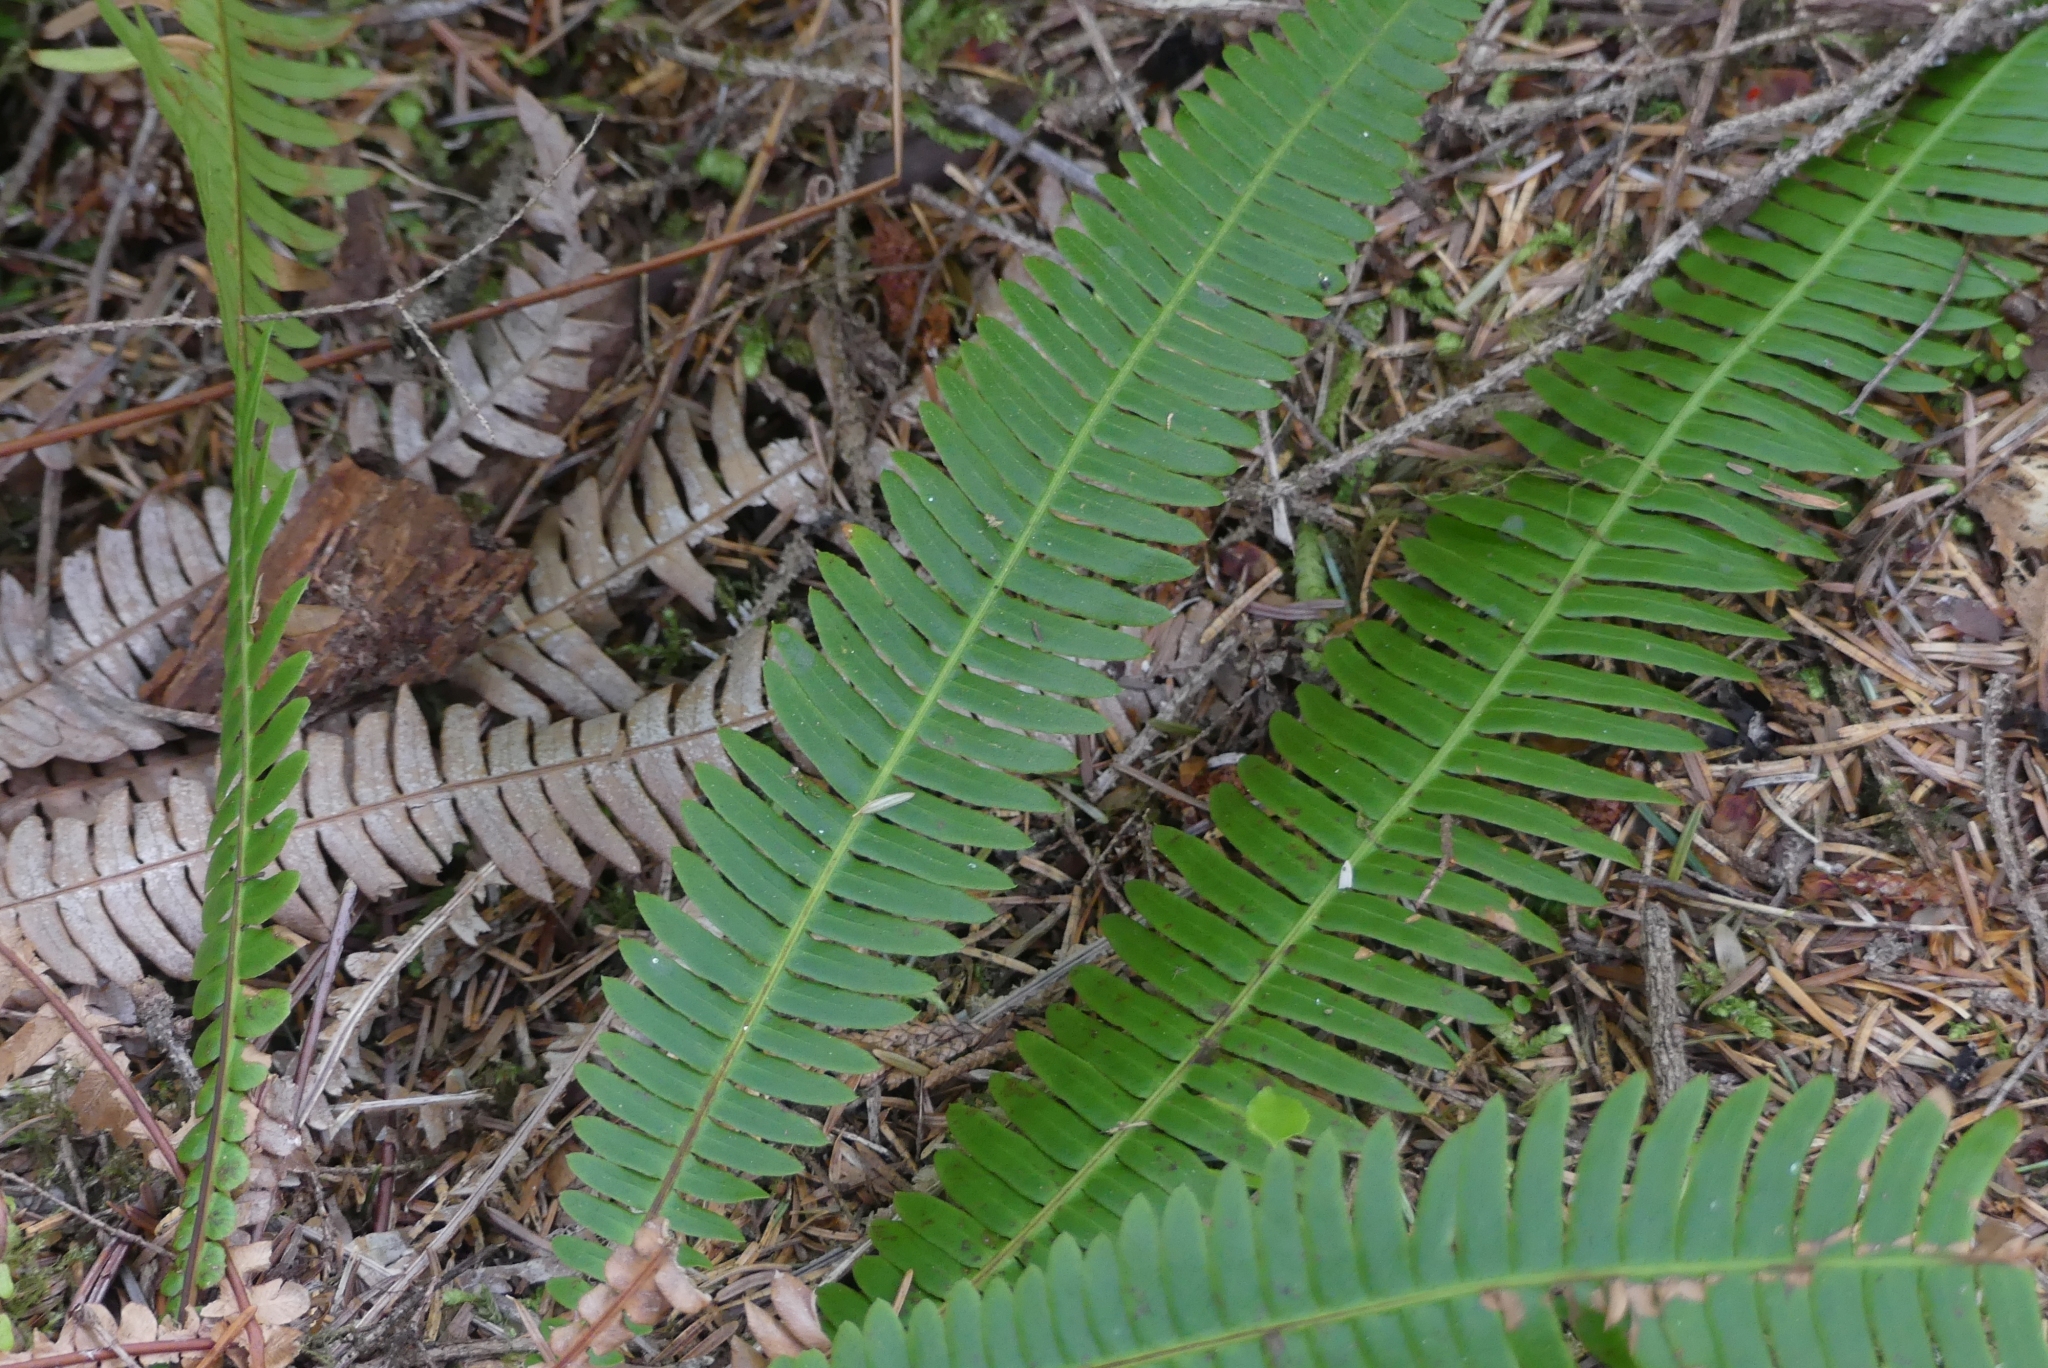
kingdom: Plantae
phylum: Tracheophyta
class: Polypodiopsida
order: Polypodiales
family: Blechnaceae
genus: Struthiopteris
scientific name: Struthiopteris spicant
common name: Deer fern
